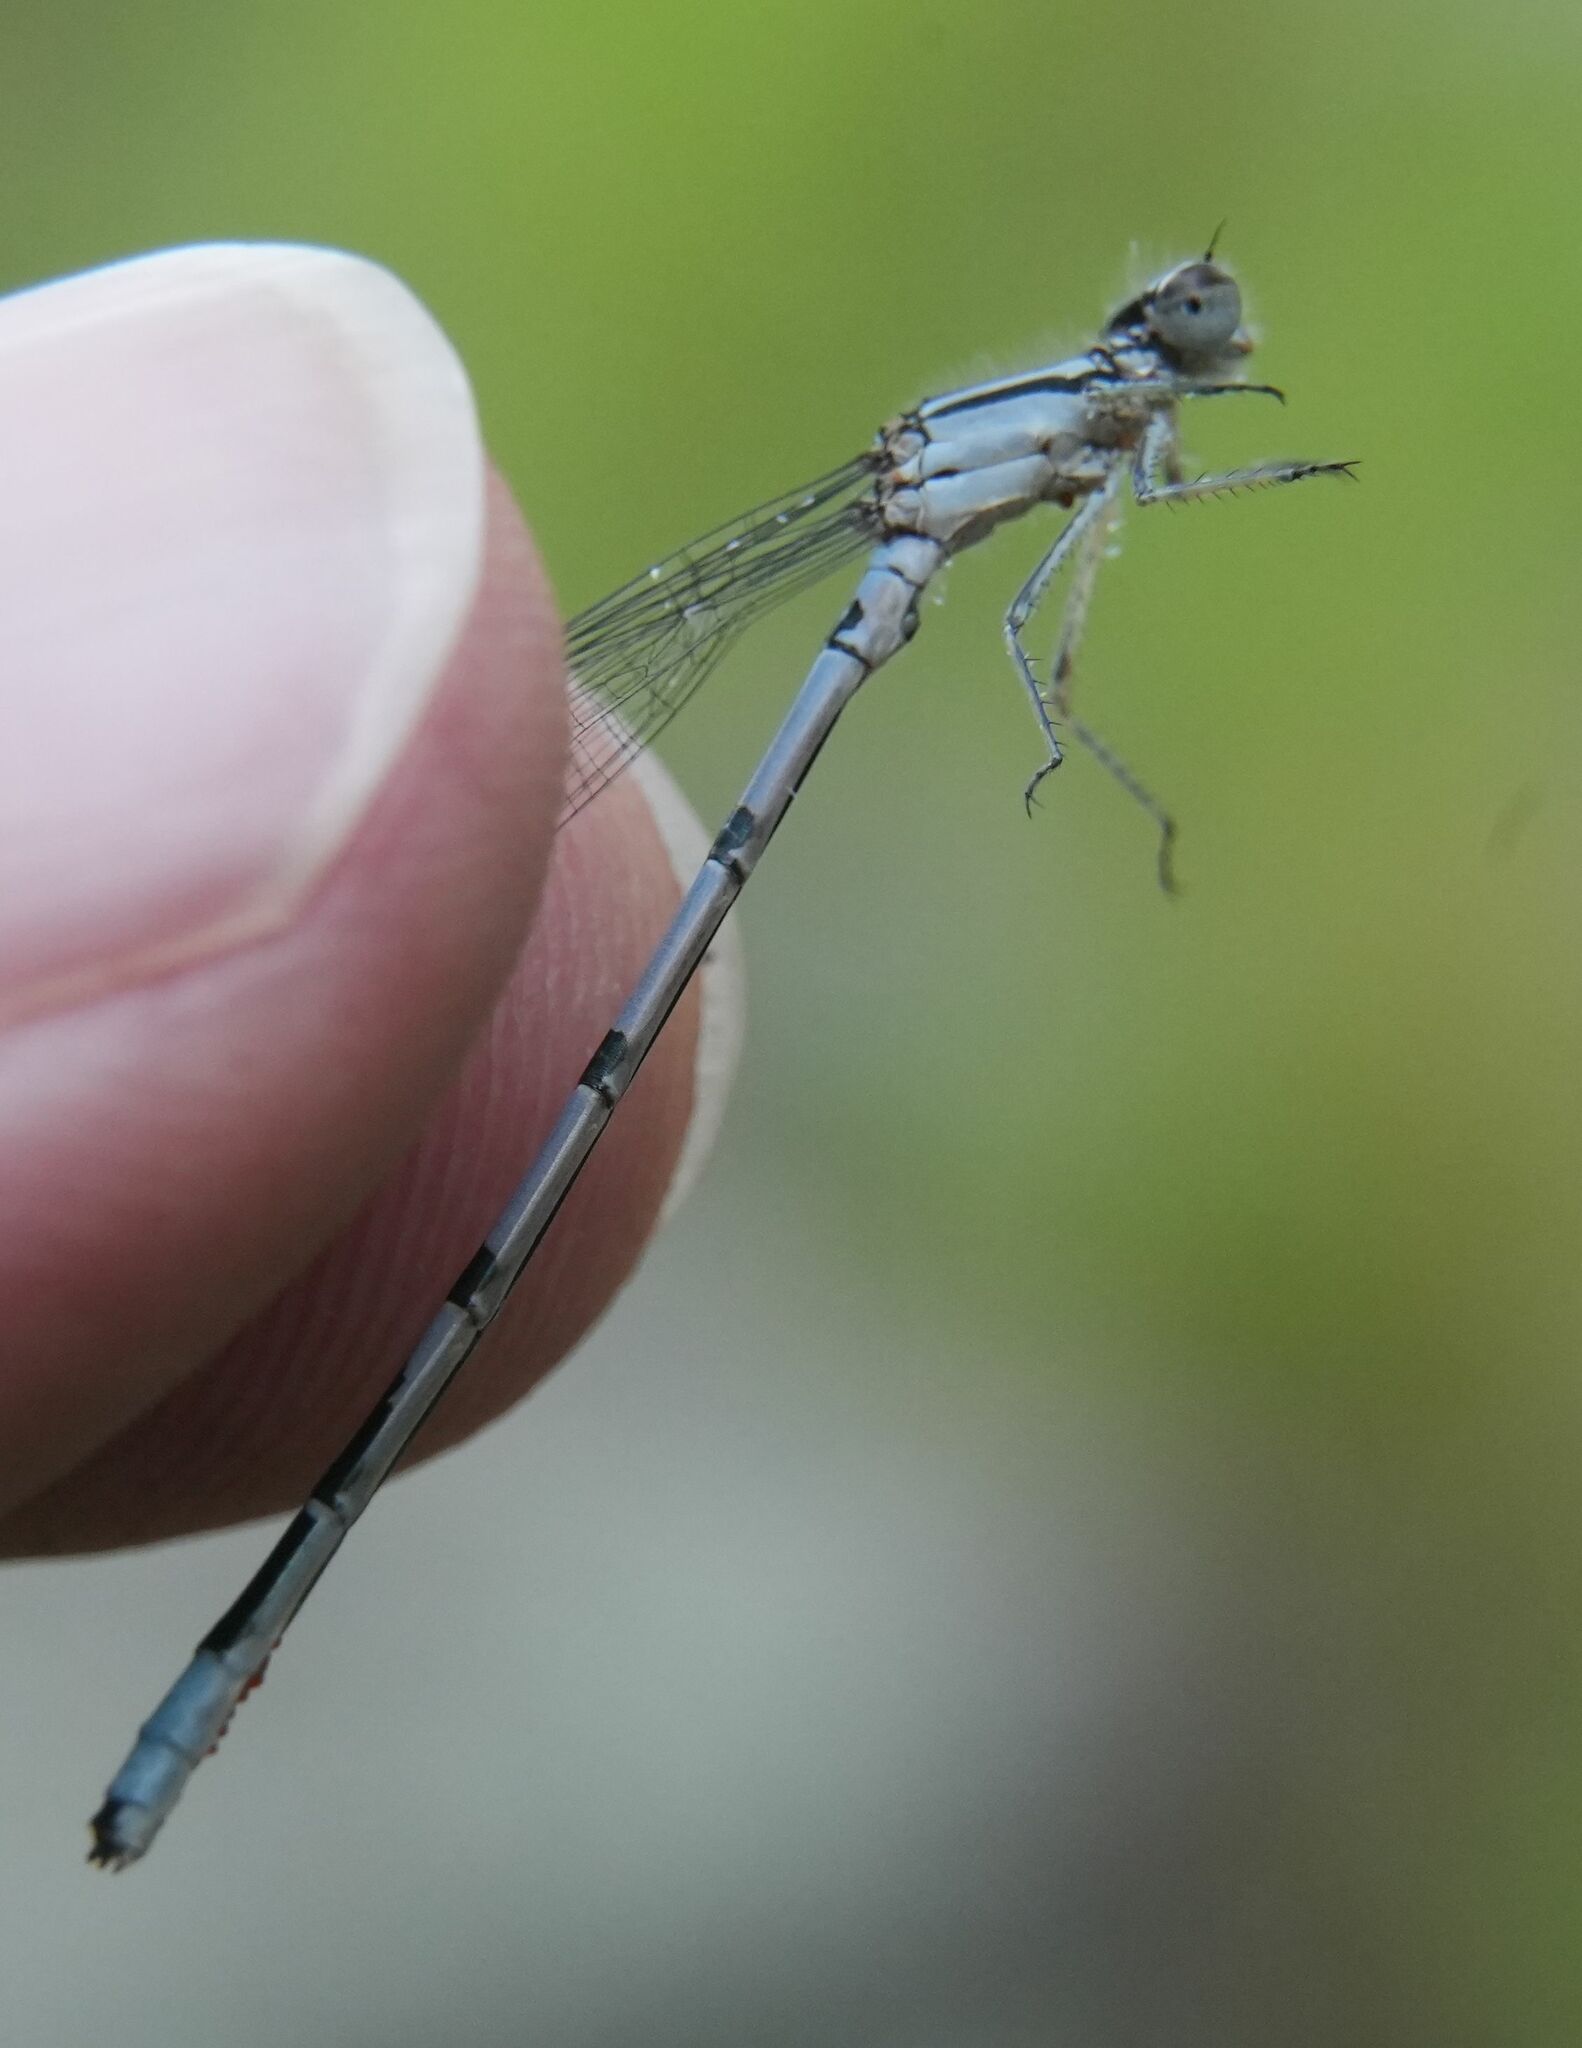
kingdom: Animalia
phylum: Arthropoda
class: Insecta
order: Odonata
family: Coenagrionidae
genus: Enallagma
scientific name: Enallagma ebrium
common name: Marsh bluet
